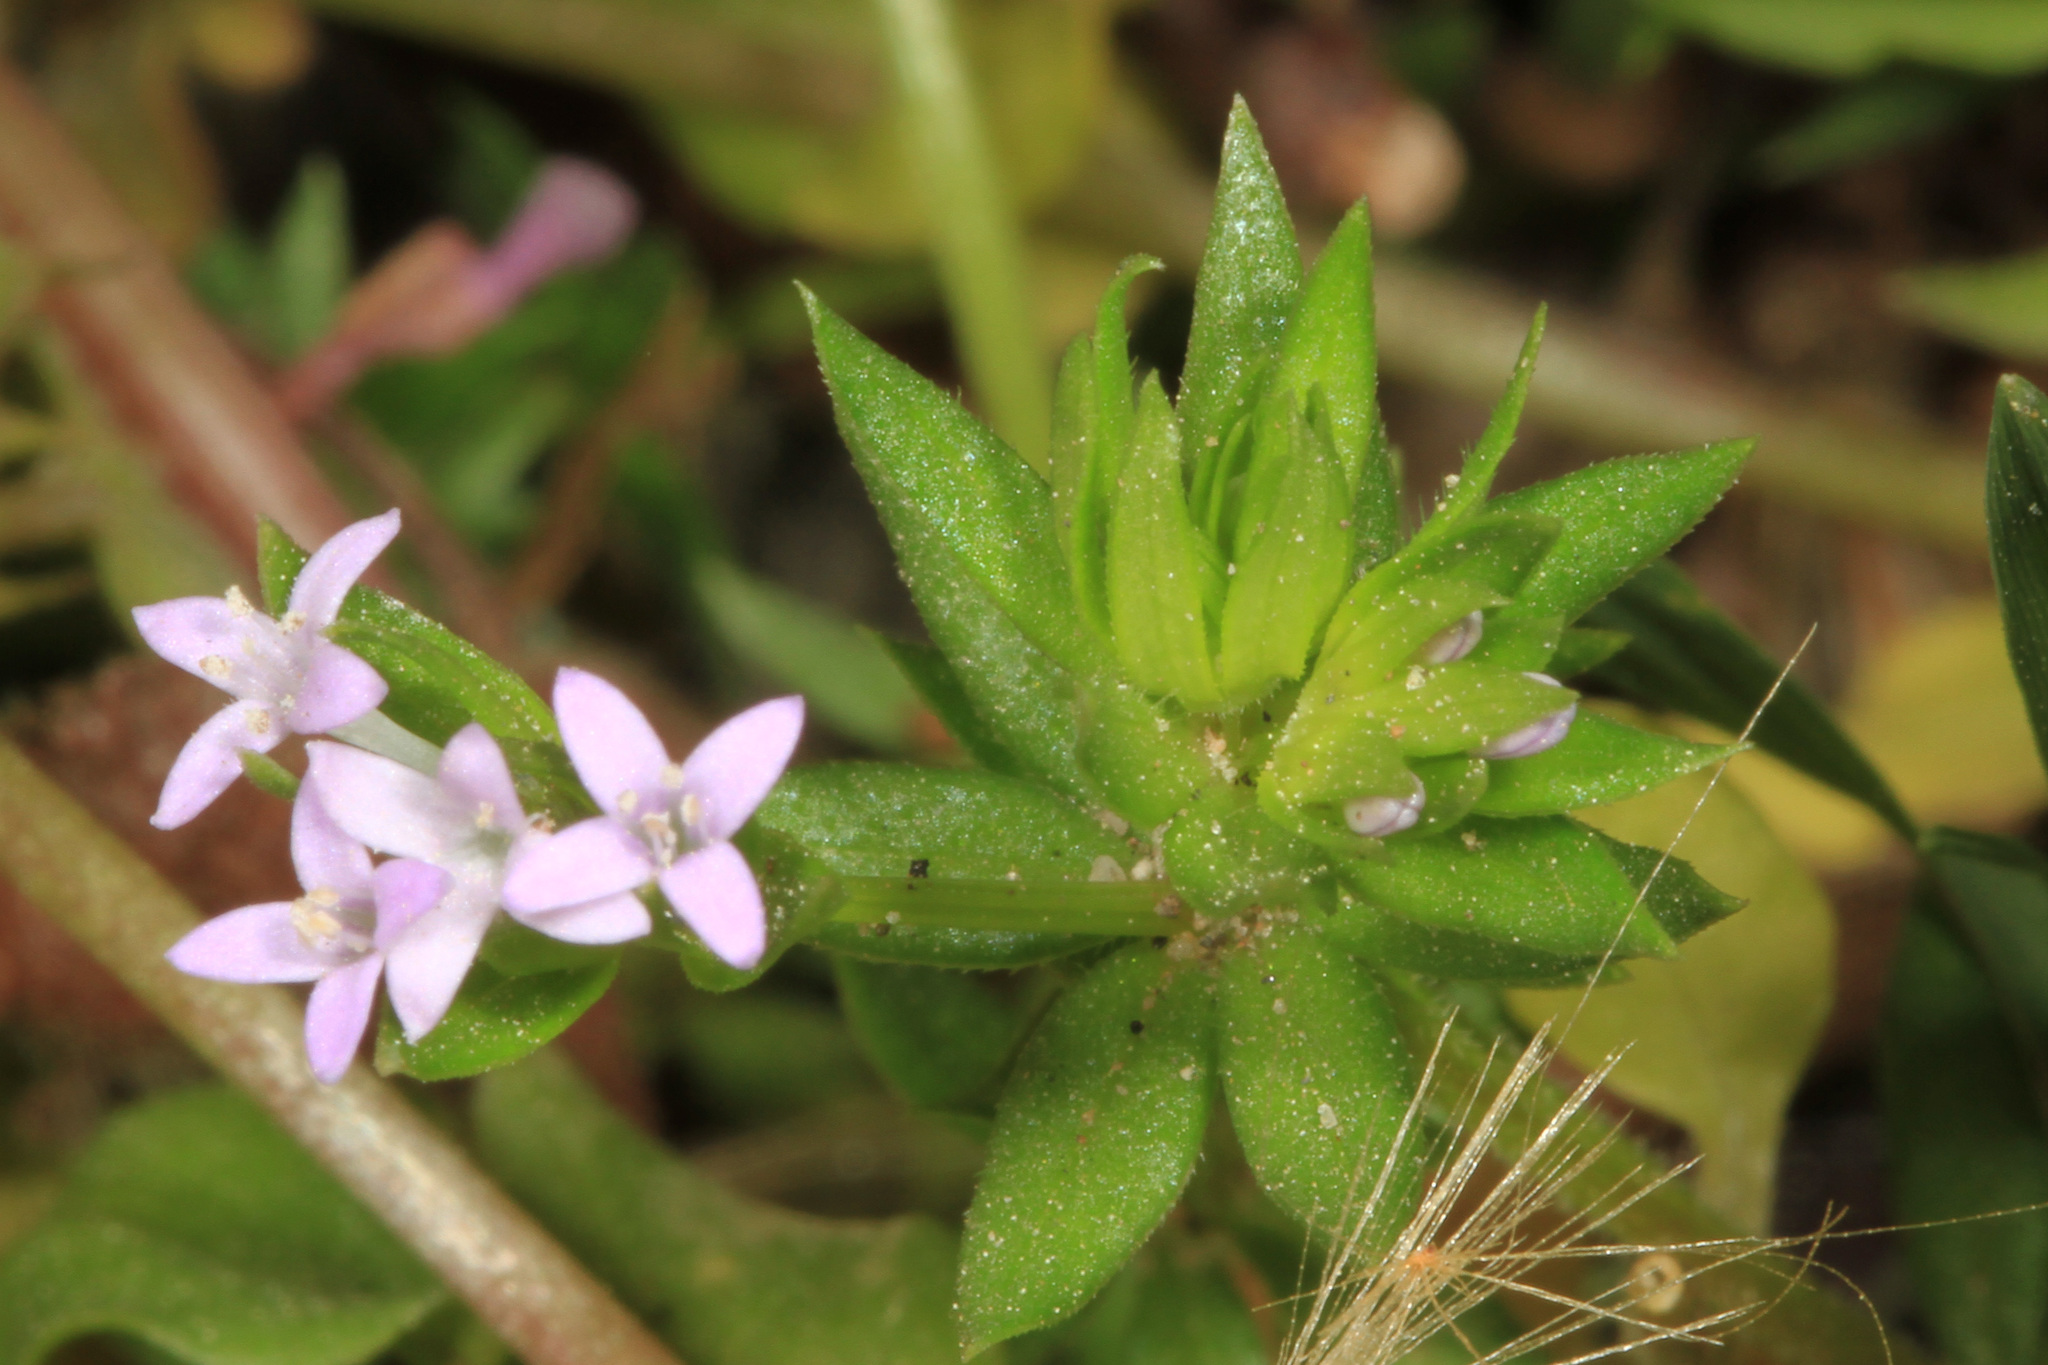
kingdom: Plantae
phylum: Tracheophyta
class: Magnoliopsida
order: Gentianales
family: Rubiaceae
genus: Sherardia
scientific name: Sherardia arvensis
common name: Field madder
